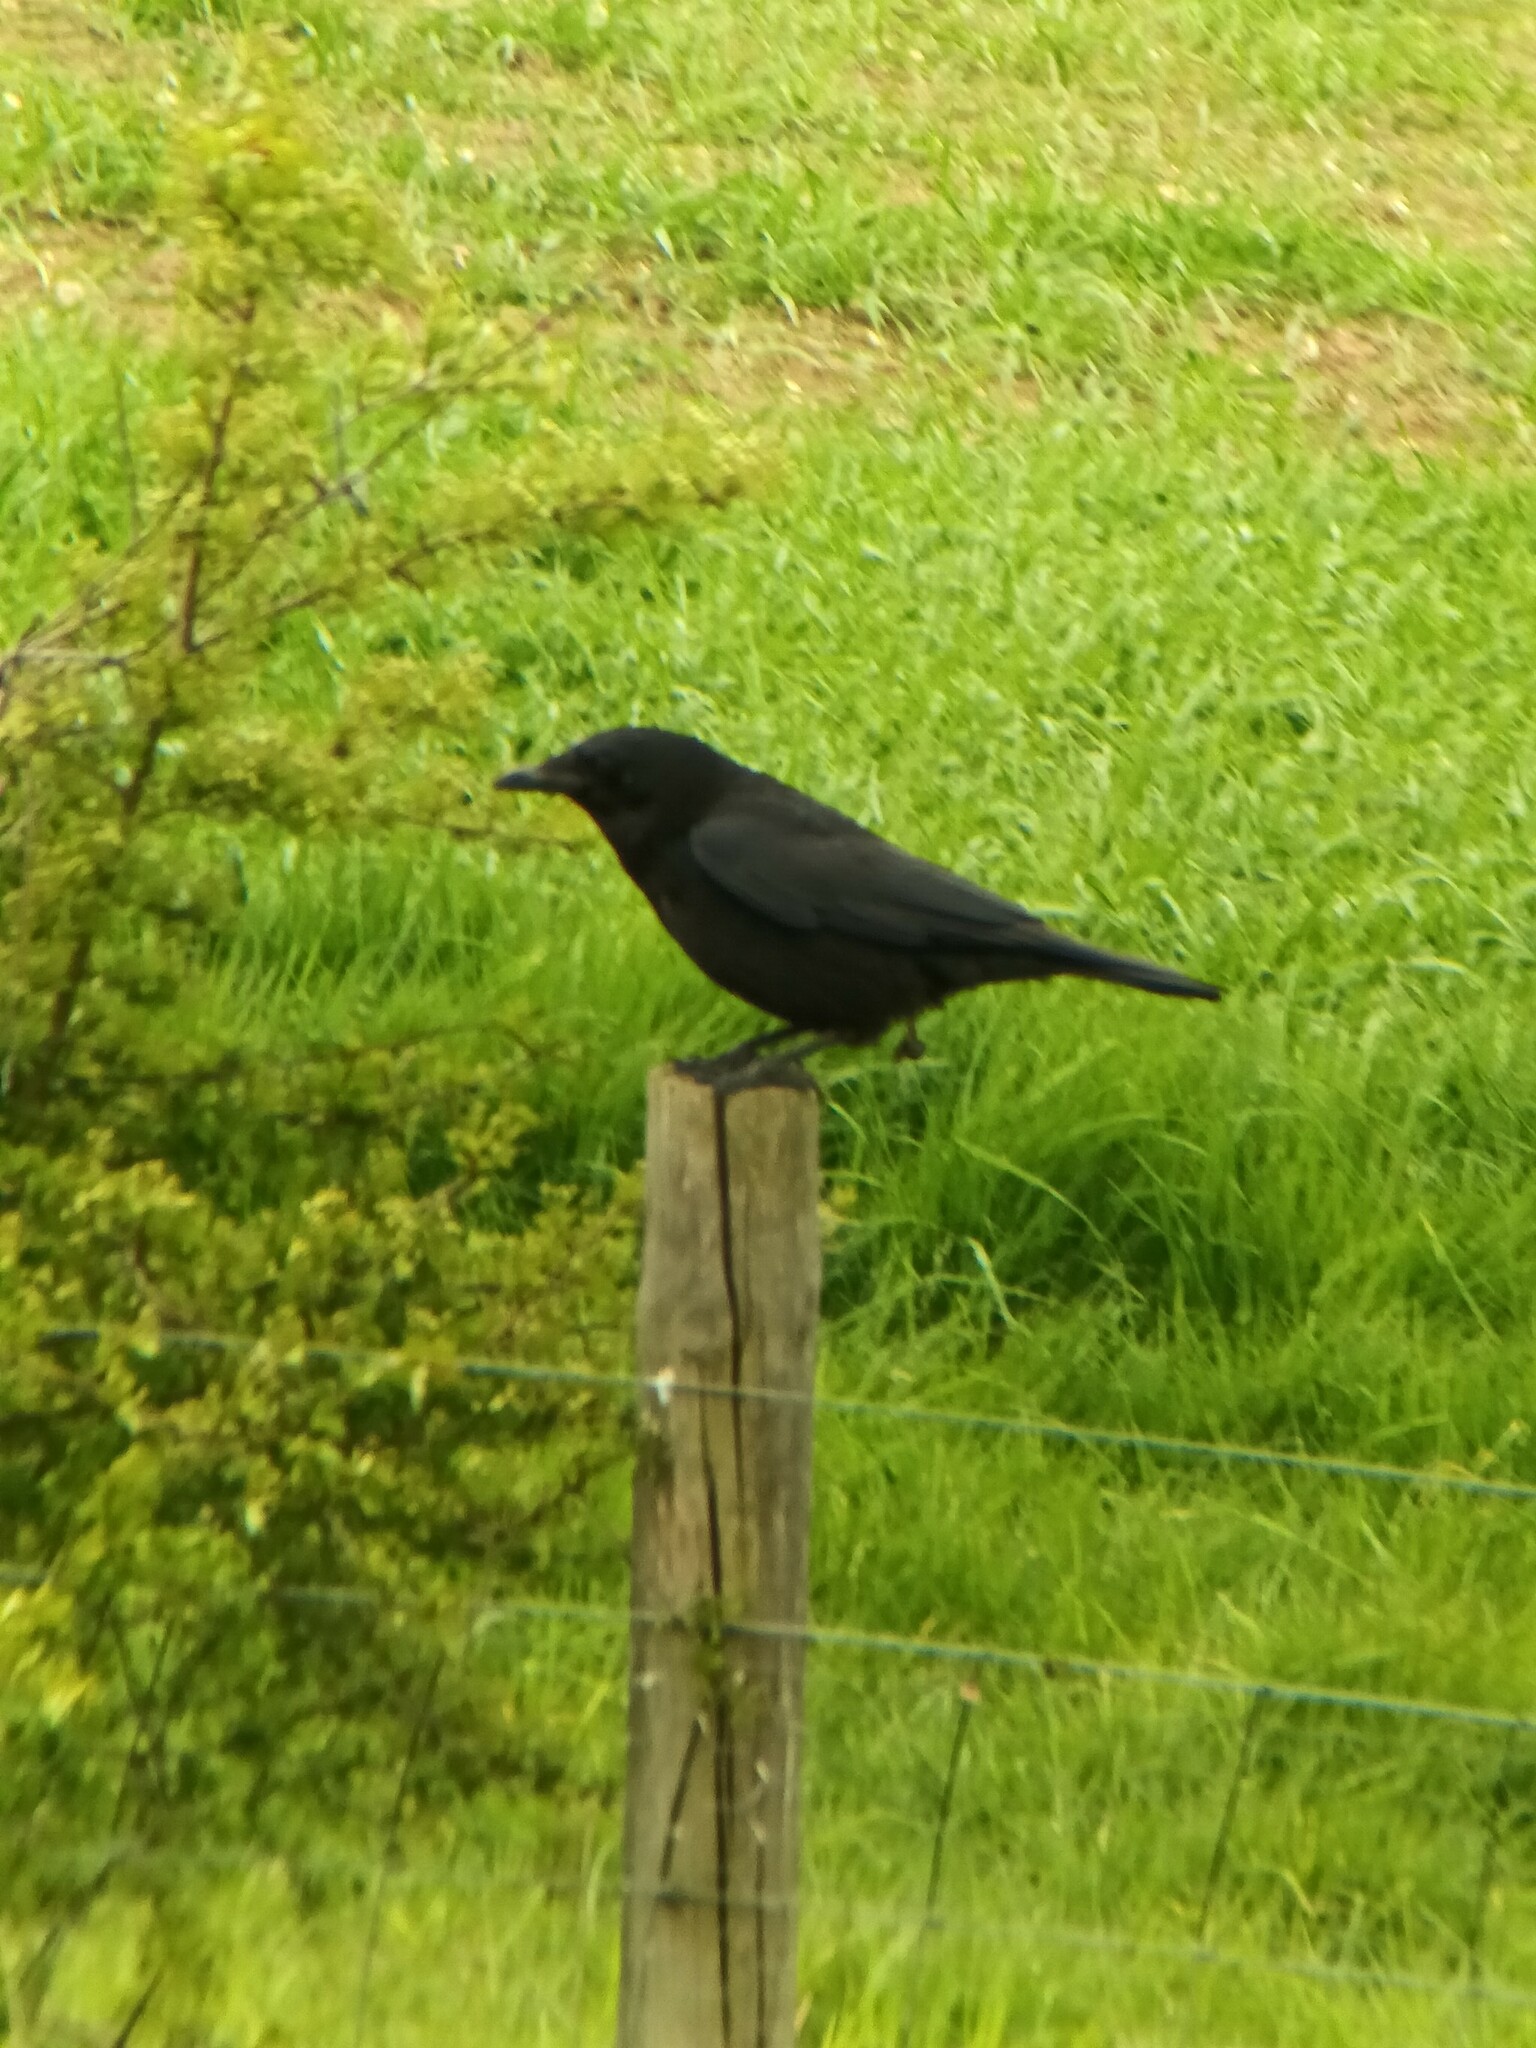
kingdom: Animalia
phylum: Chordata
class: Aves
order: Passeriformes
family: Corvidae
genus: Corvus
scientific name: Corvus corone
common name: Carrion crow
